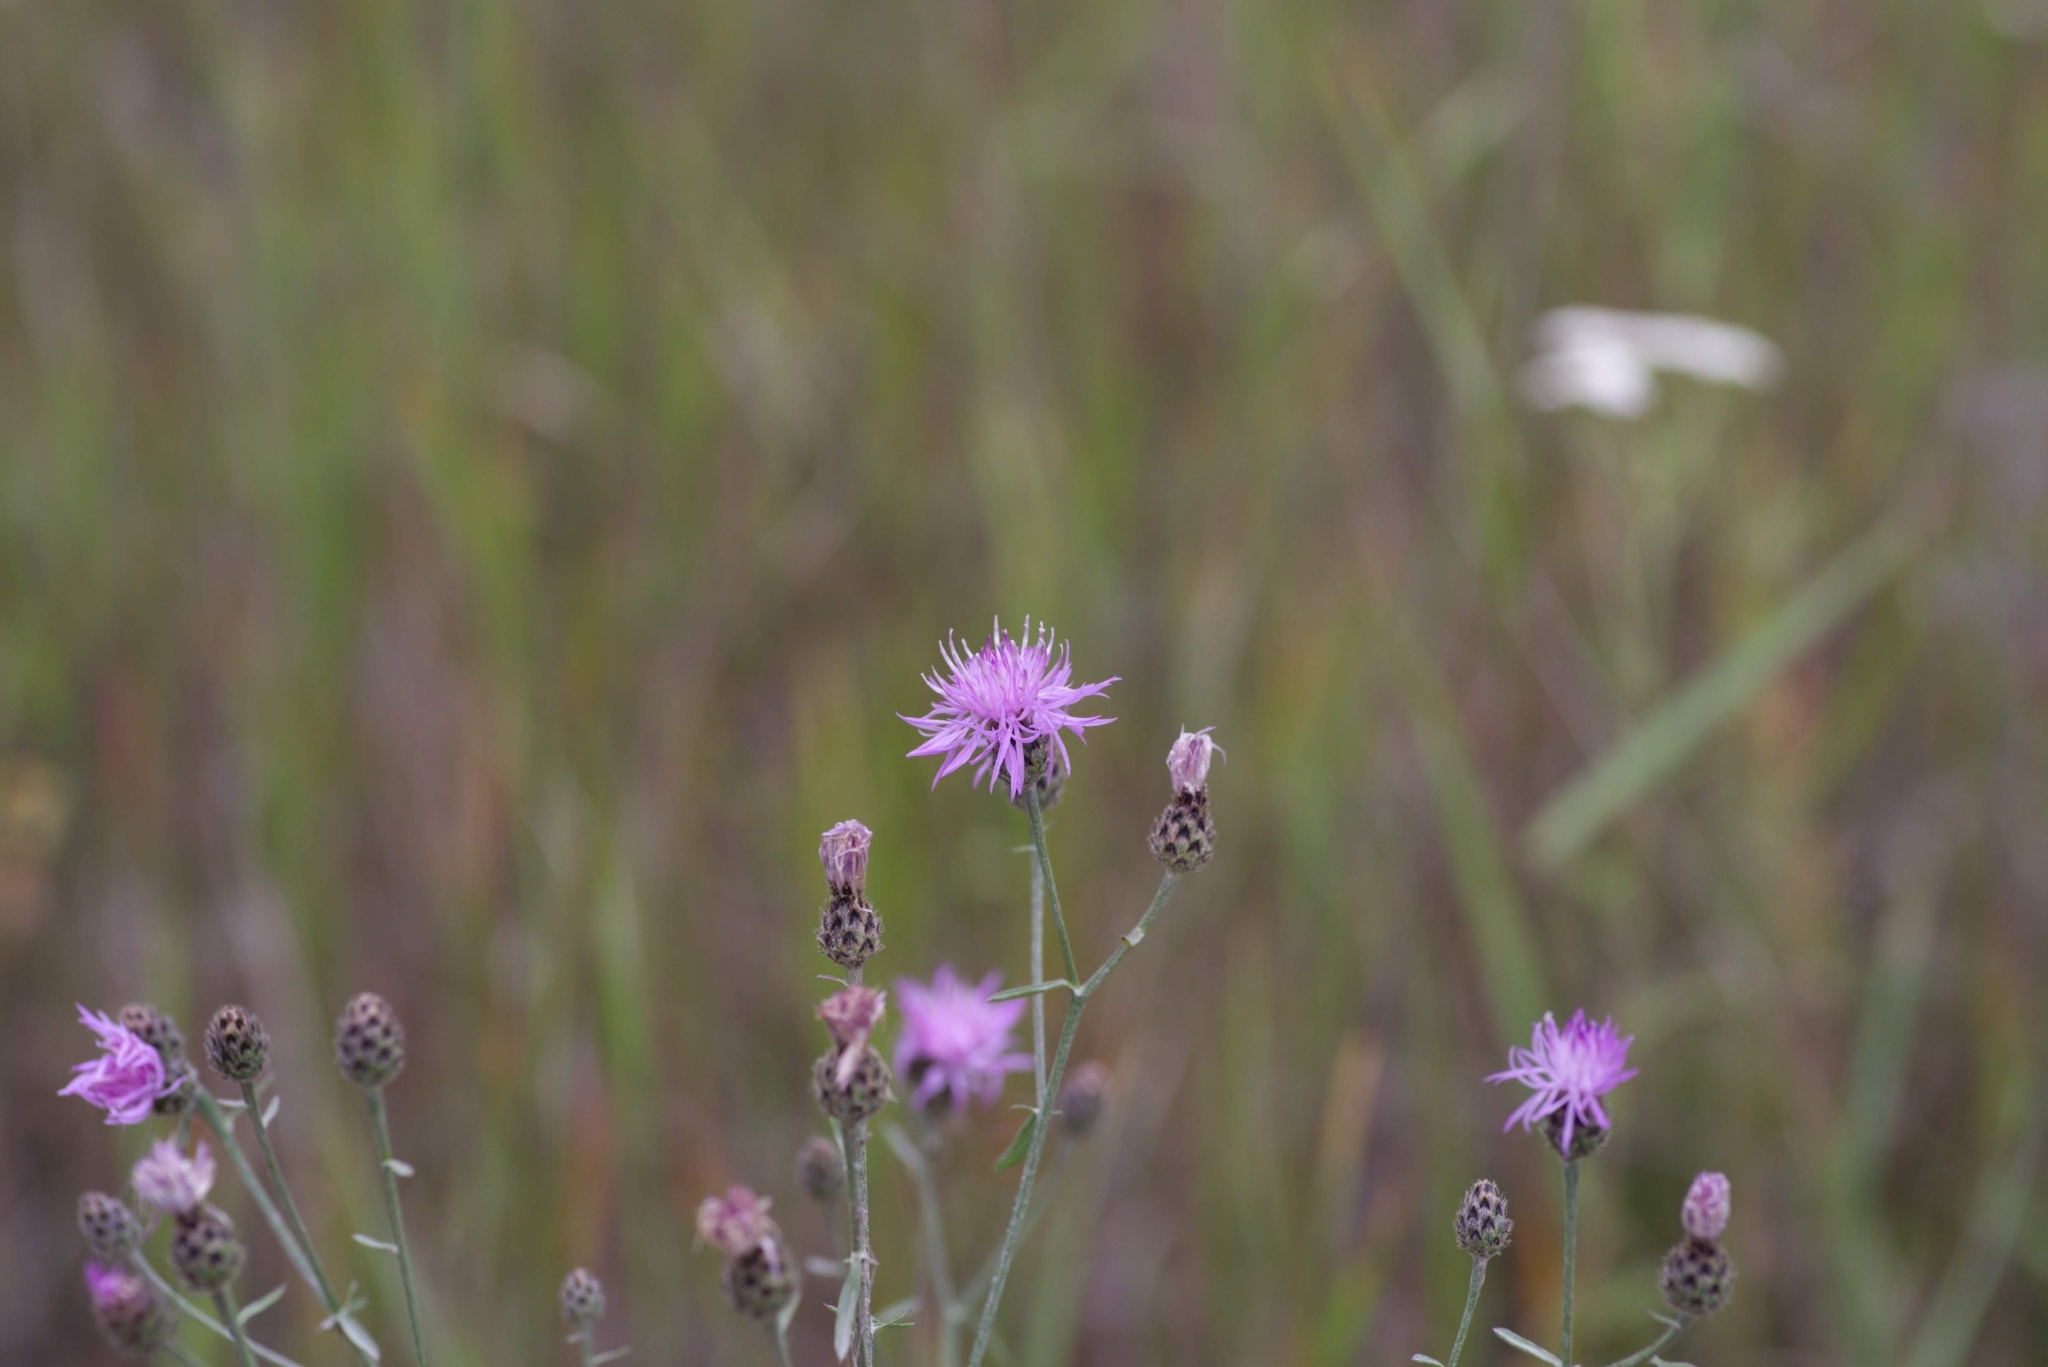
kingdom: Plantae
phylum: Tracheophyta
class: Magnoliopsida
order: Asterales
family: Asteraceae
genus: Centaurea
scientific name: Centaurea stoebe
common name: Spotted knapweed
